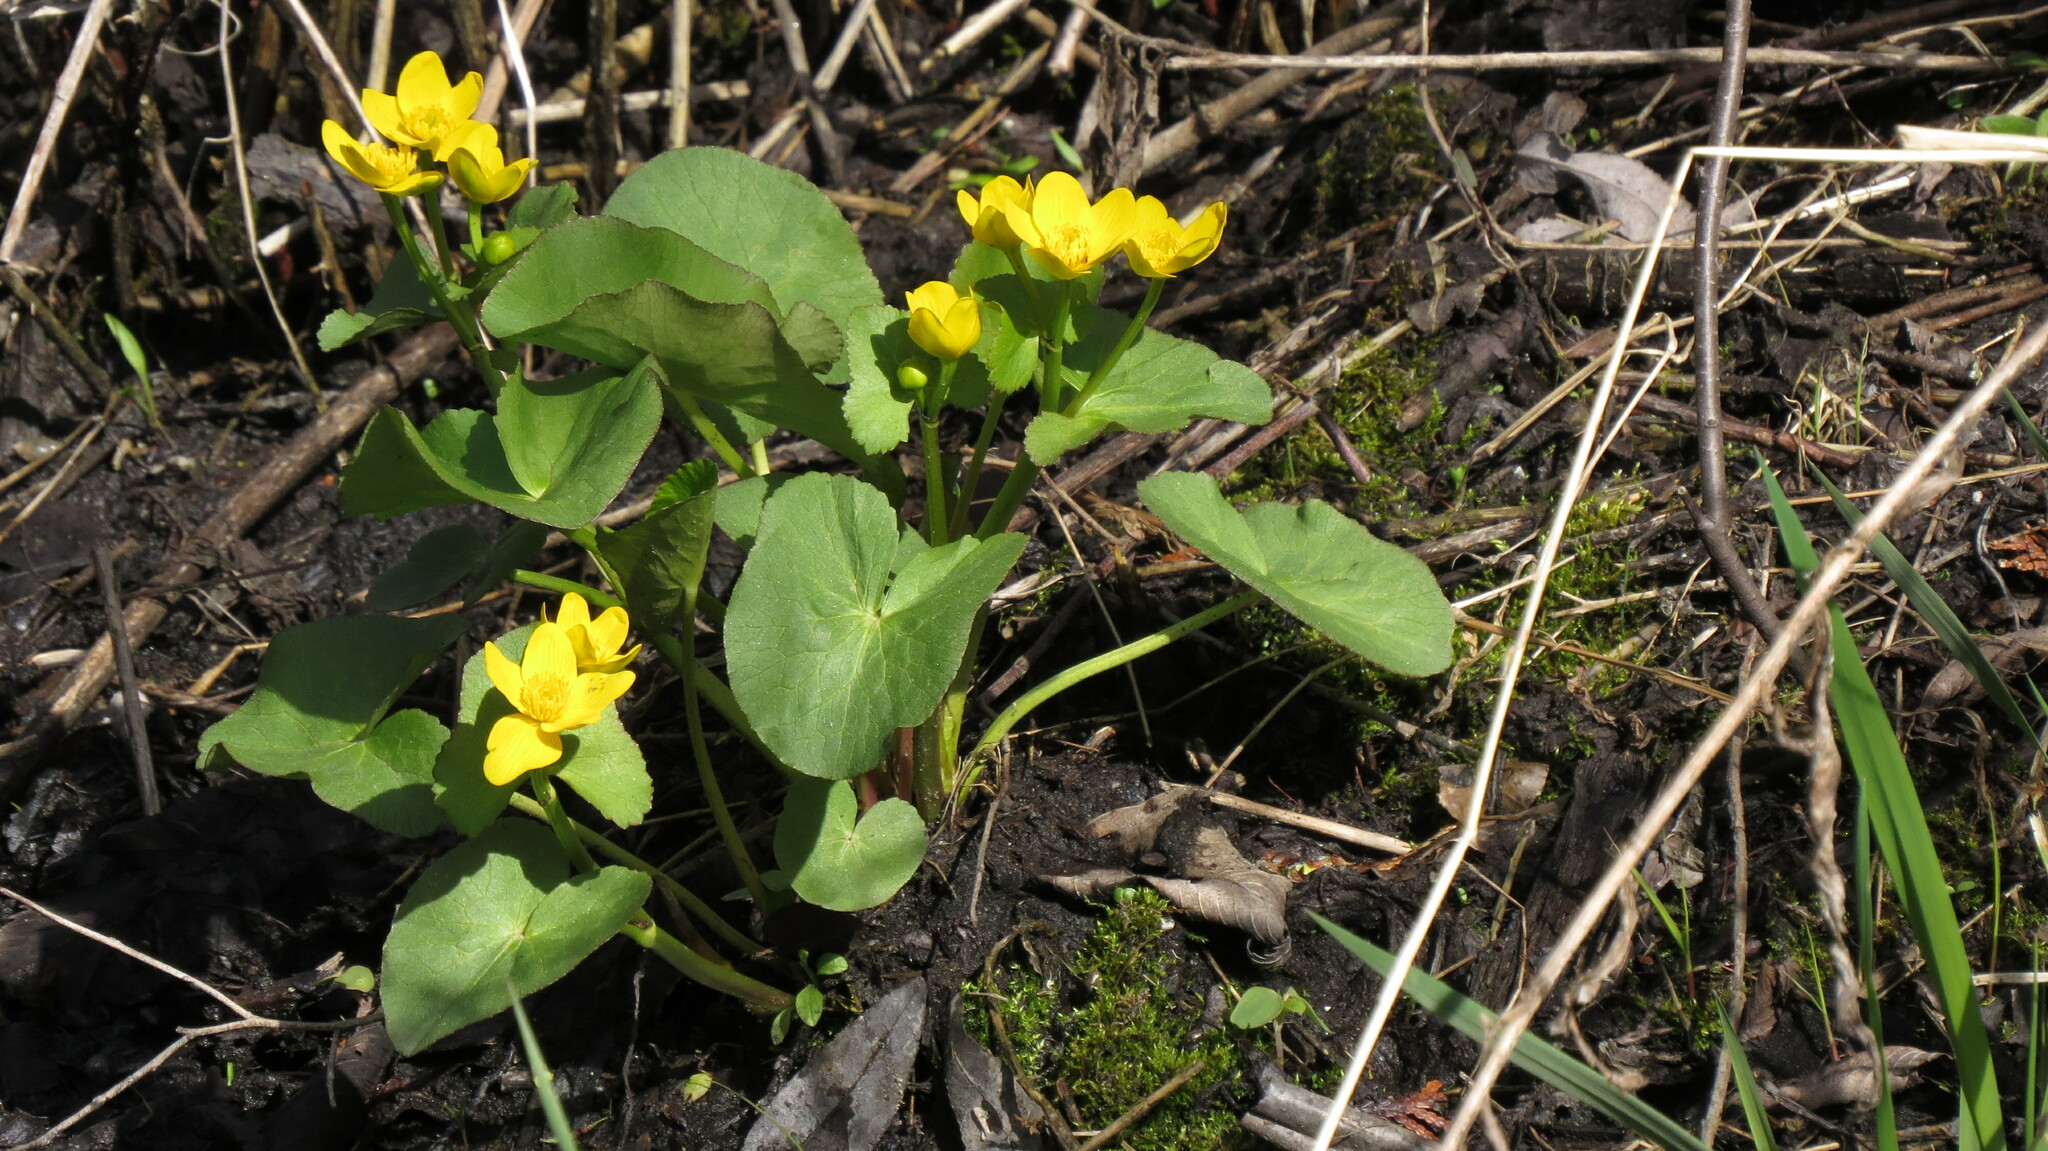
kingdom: Plantae
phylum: Tracheophyta
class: Magnoliopsida
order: Ranunculales
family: Ranunculaceae
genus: Caltha
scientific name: Caltha palustris
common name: Marsh marigold
